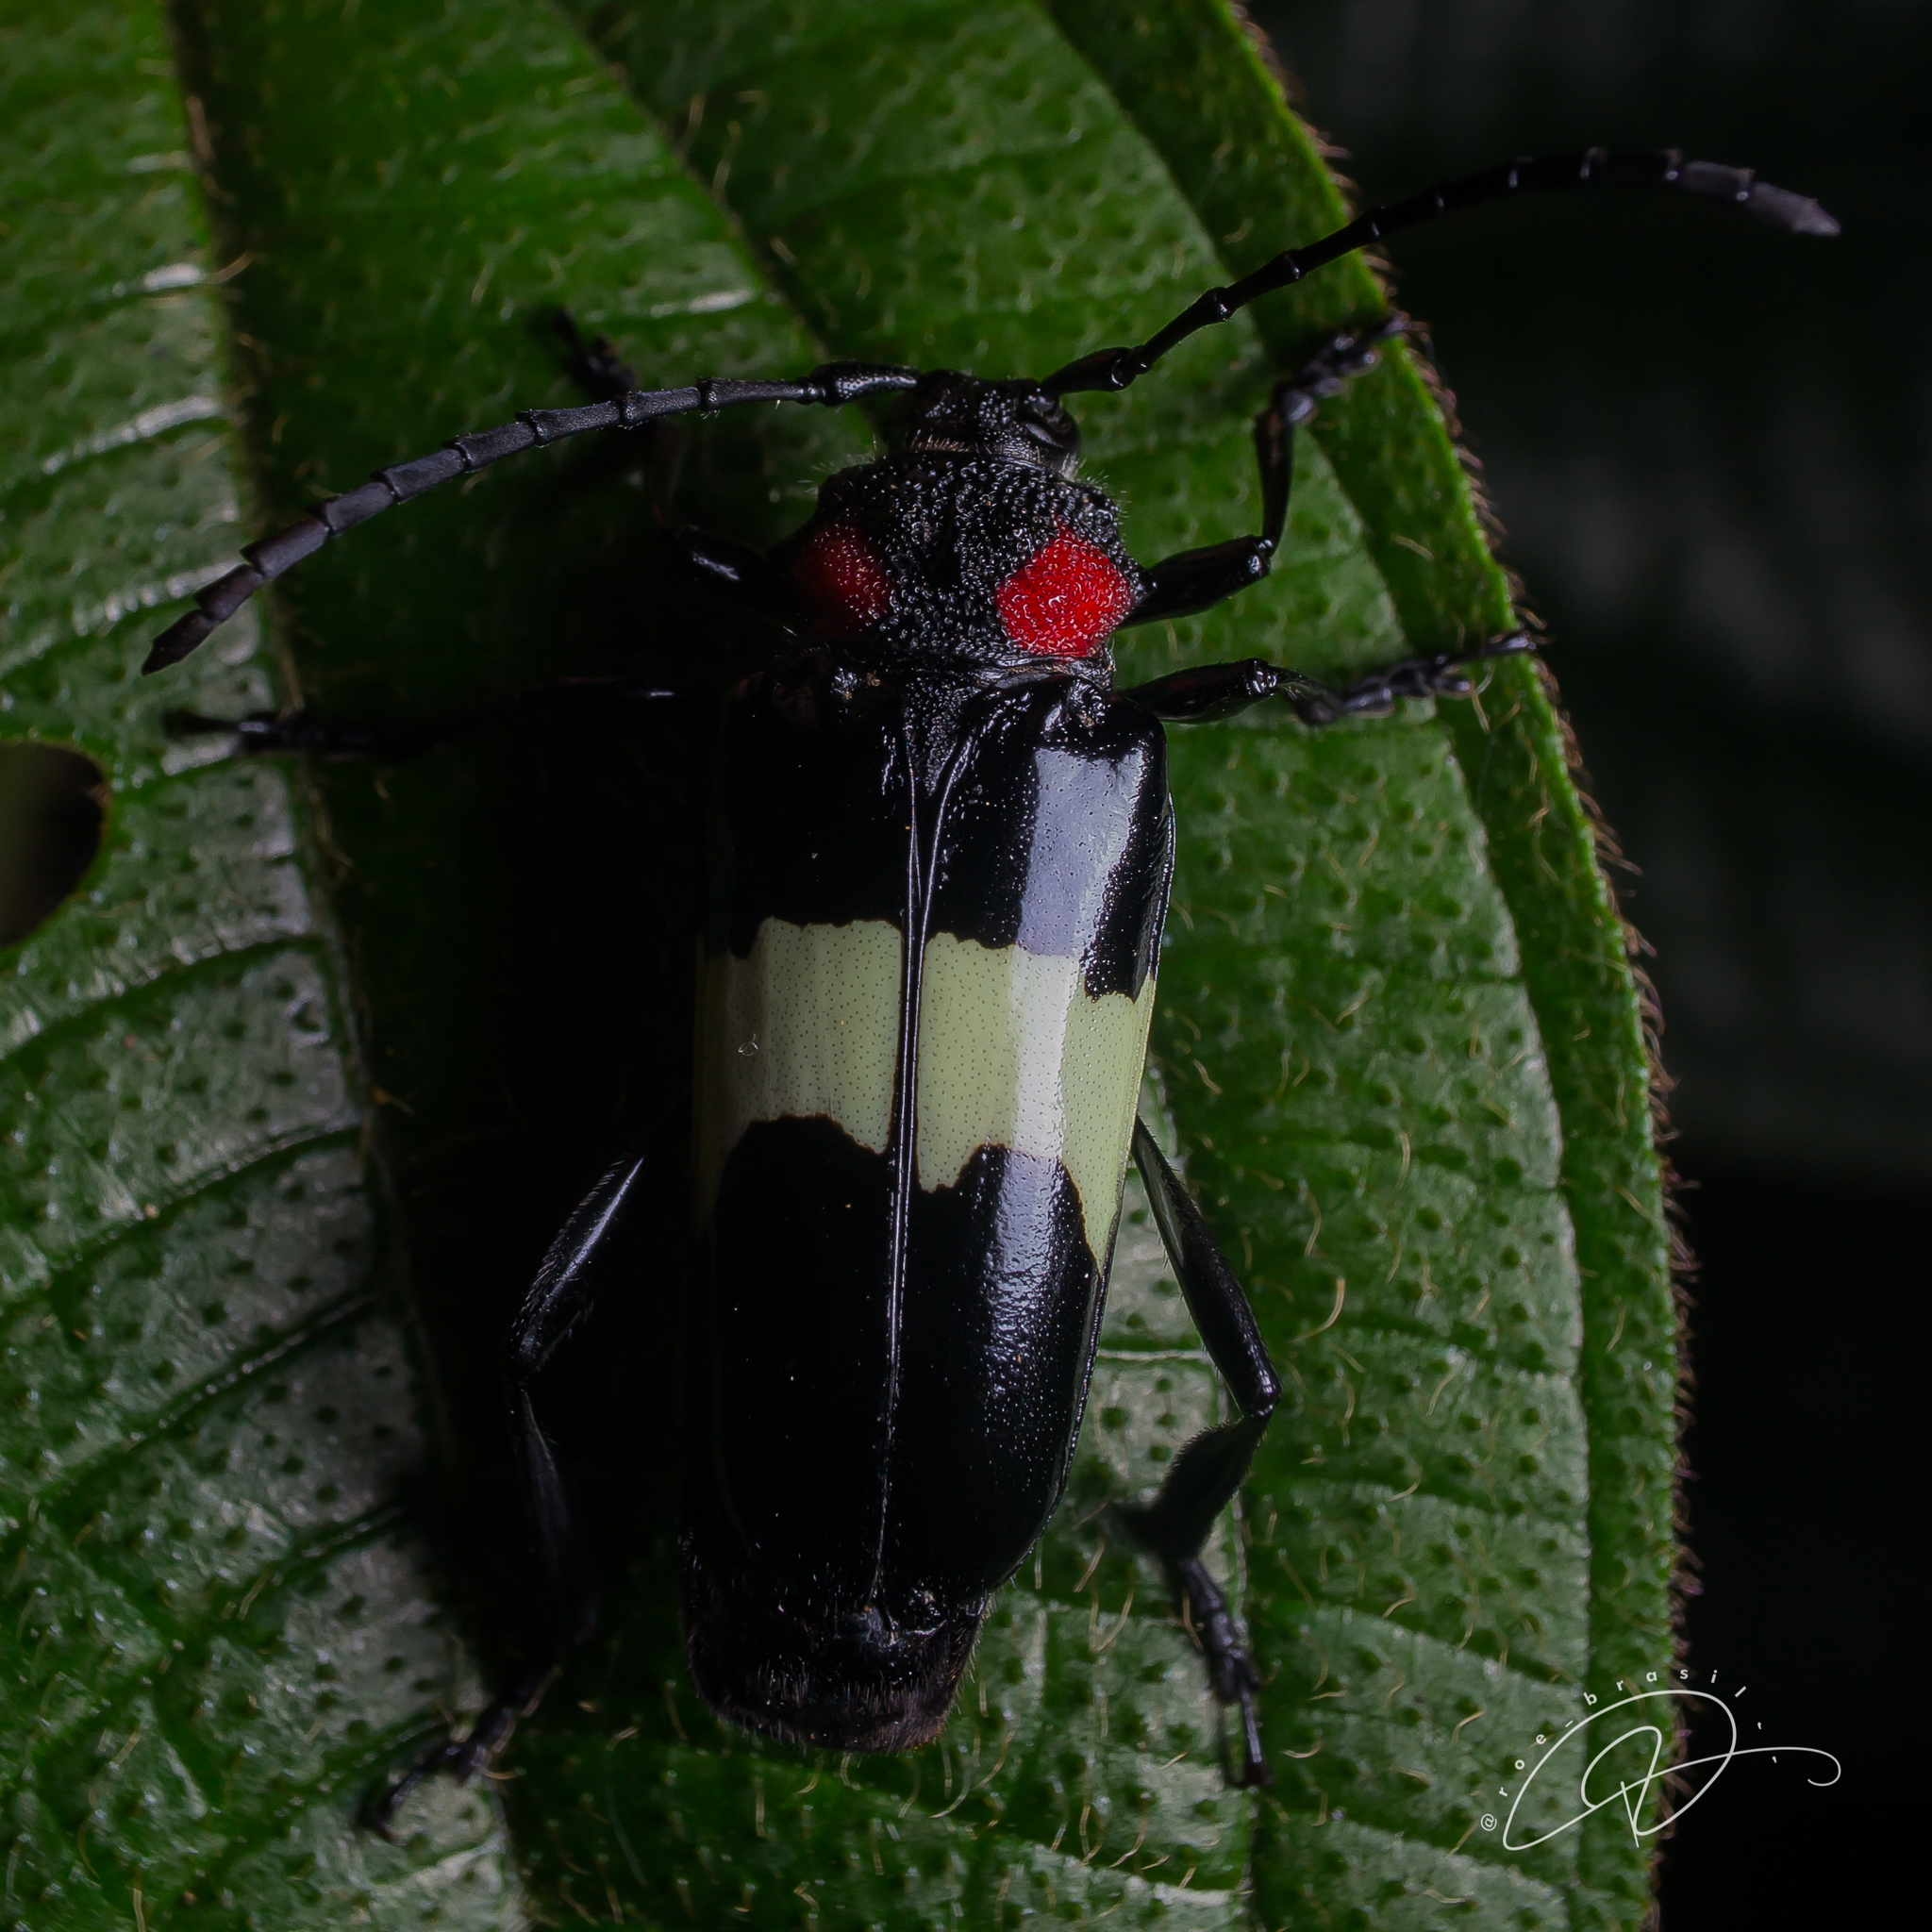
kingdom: Animalia
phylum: Arthropoda
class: Insecta
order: Coleoptera
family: Cerambycidae
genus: Phaedinus
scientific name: Phaedinus martii
